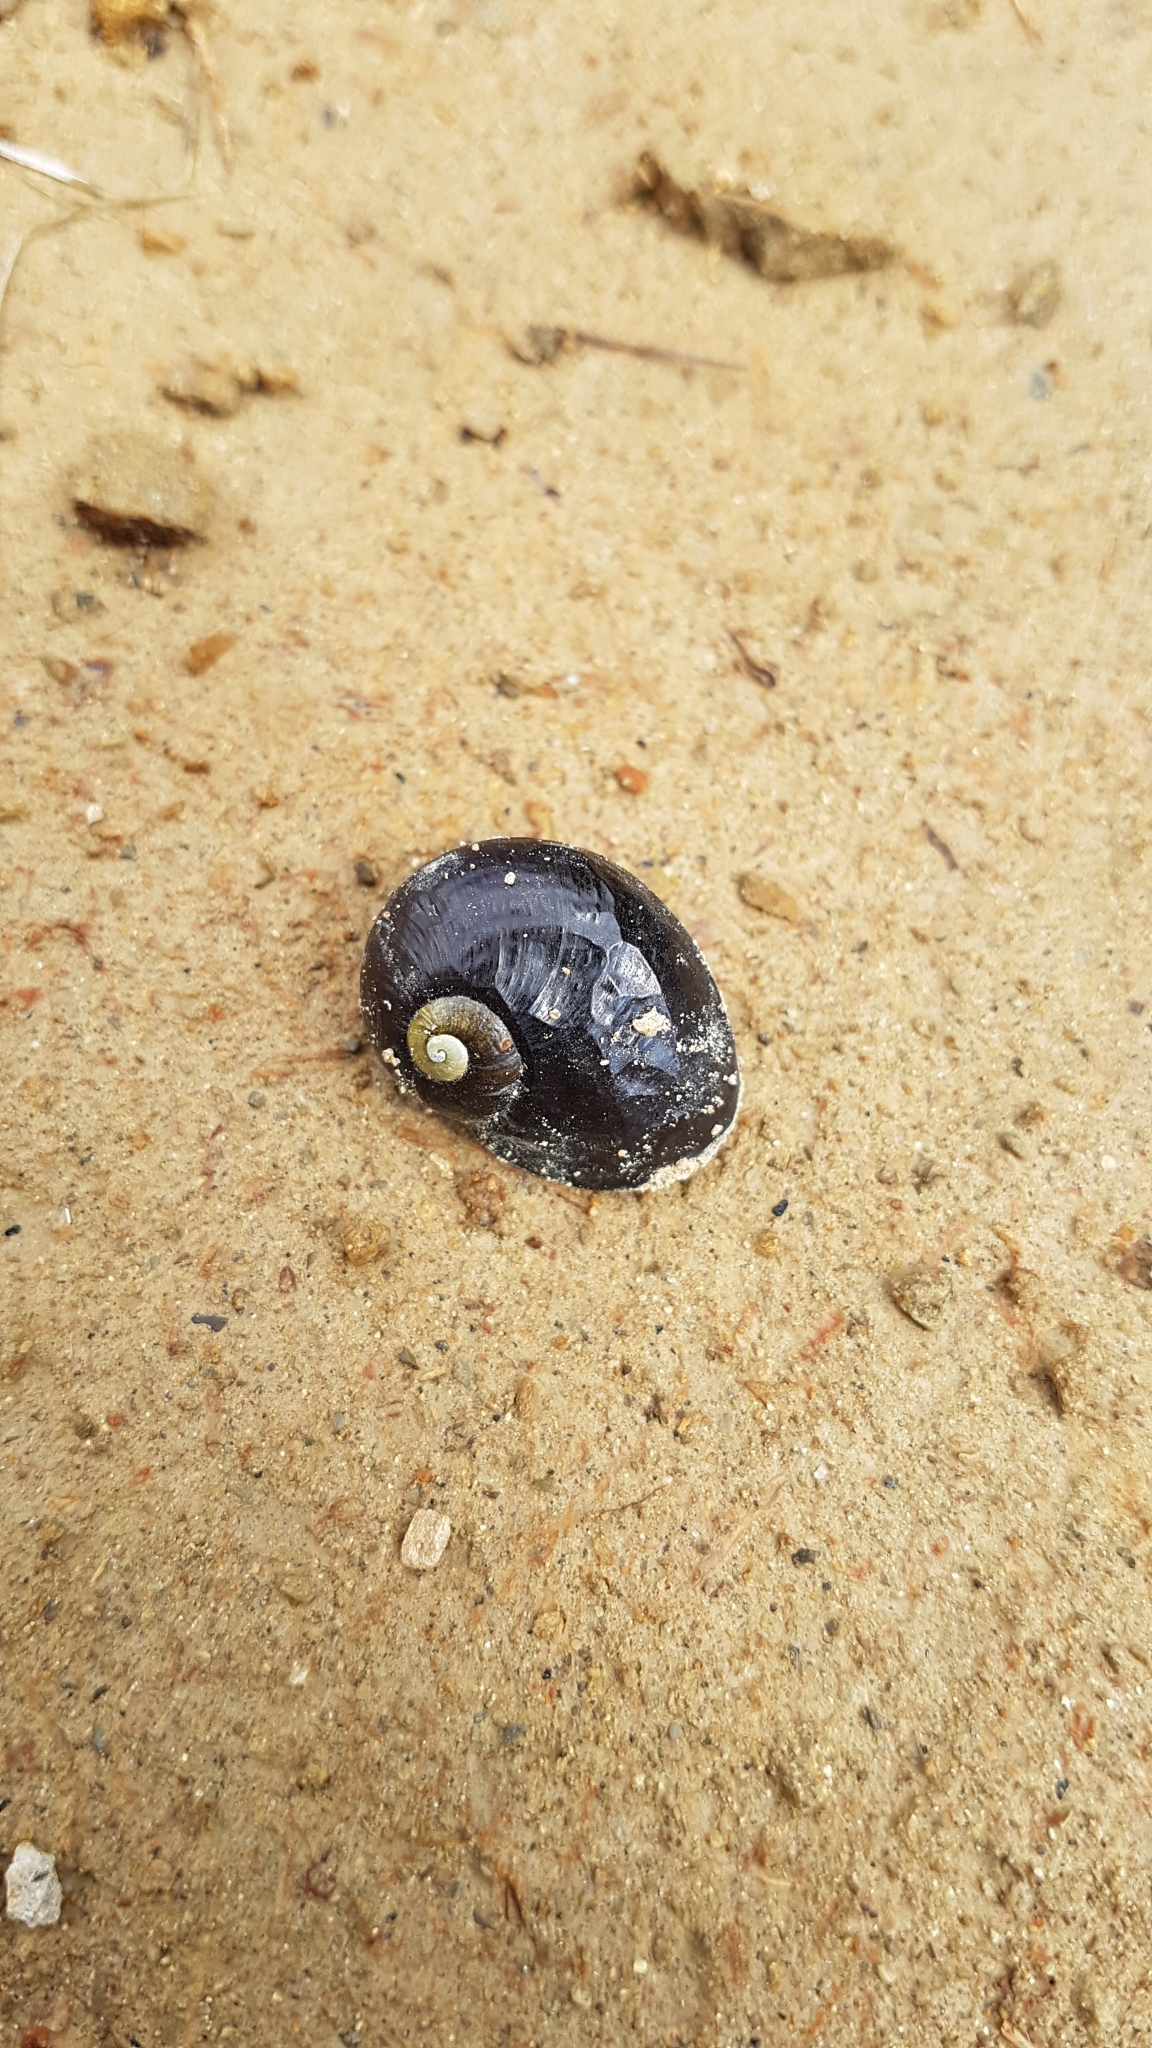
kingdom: Animalia
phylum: Mollusca
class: Gastropoda
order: Stylommatophora
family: Rhytididae
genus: Wainuia
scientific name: Wainuia urnula
